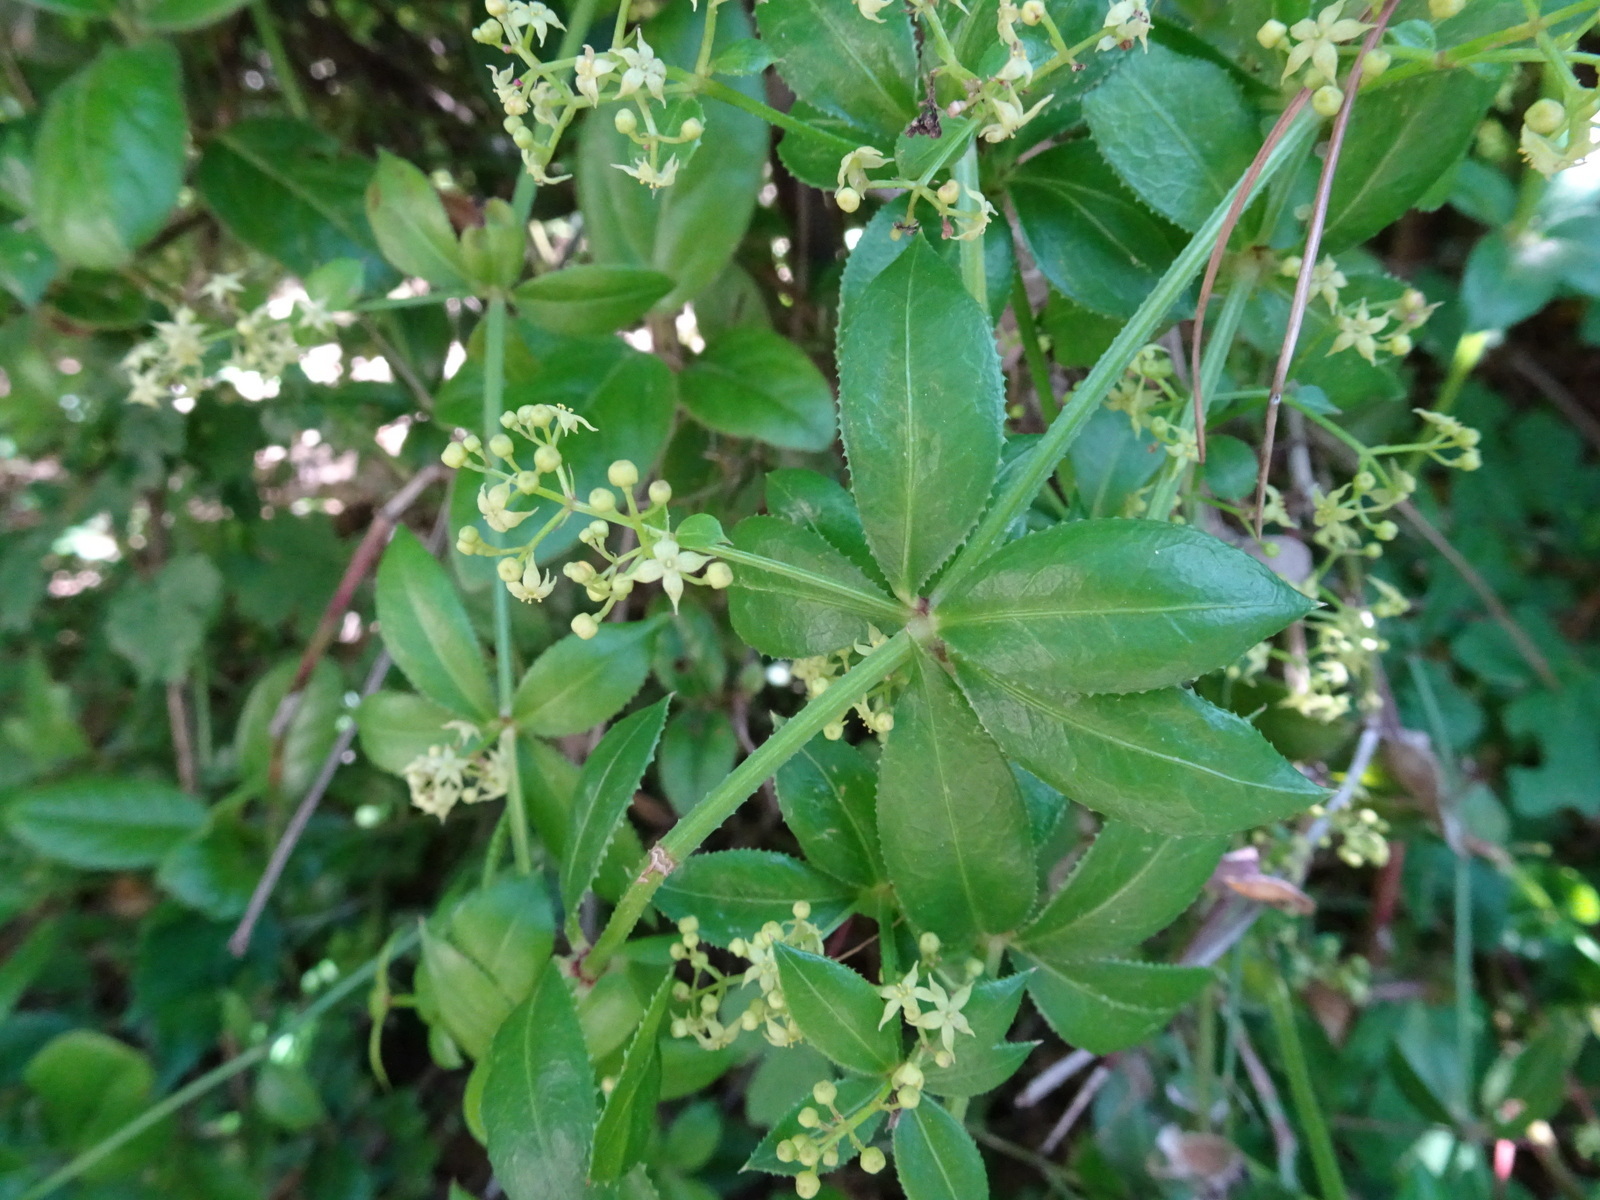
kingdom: Plantae
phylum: Tracheophyta
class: Magnoliopsida
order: Gentianales
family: Rubiaceae
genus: Rubia
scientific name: Rubia peregrina
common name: Wild madder
